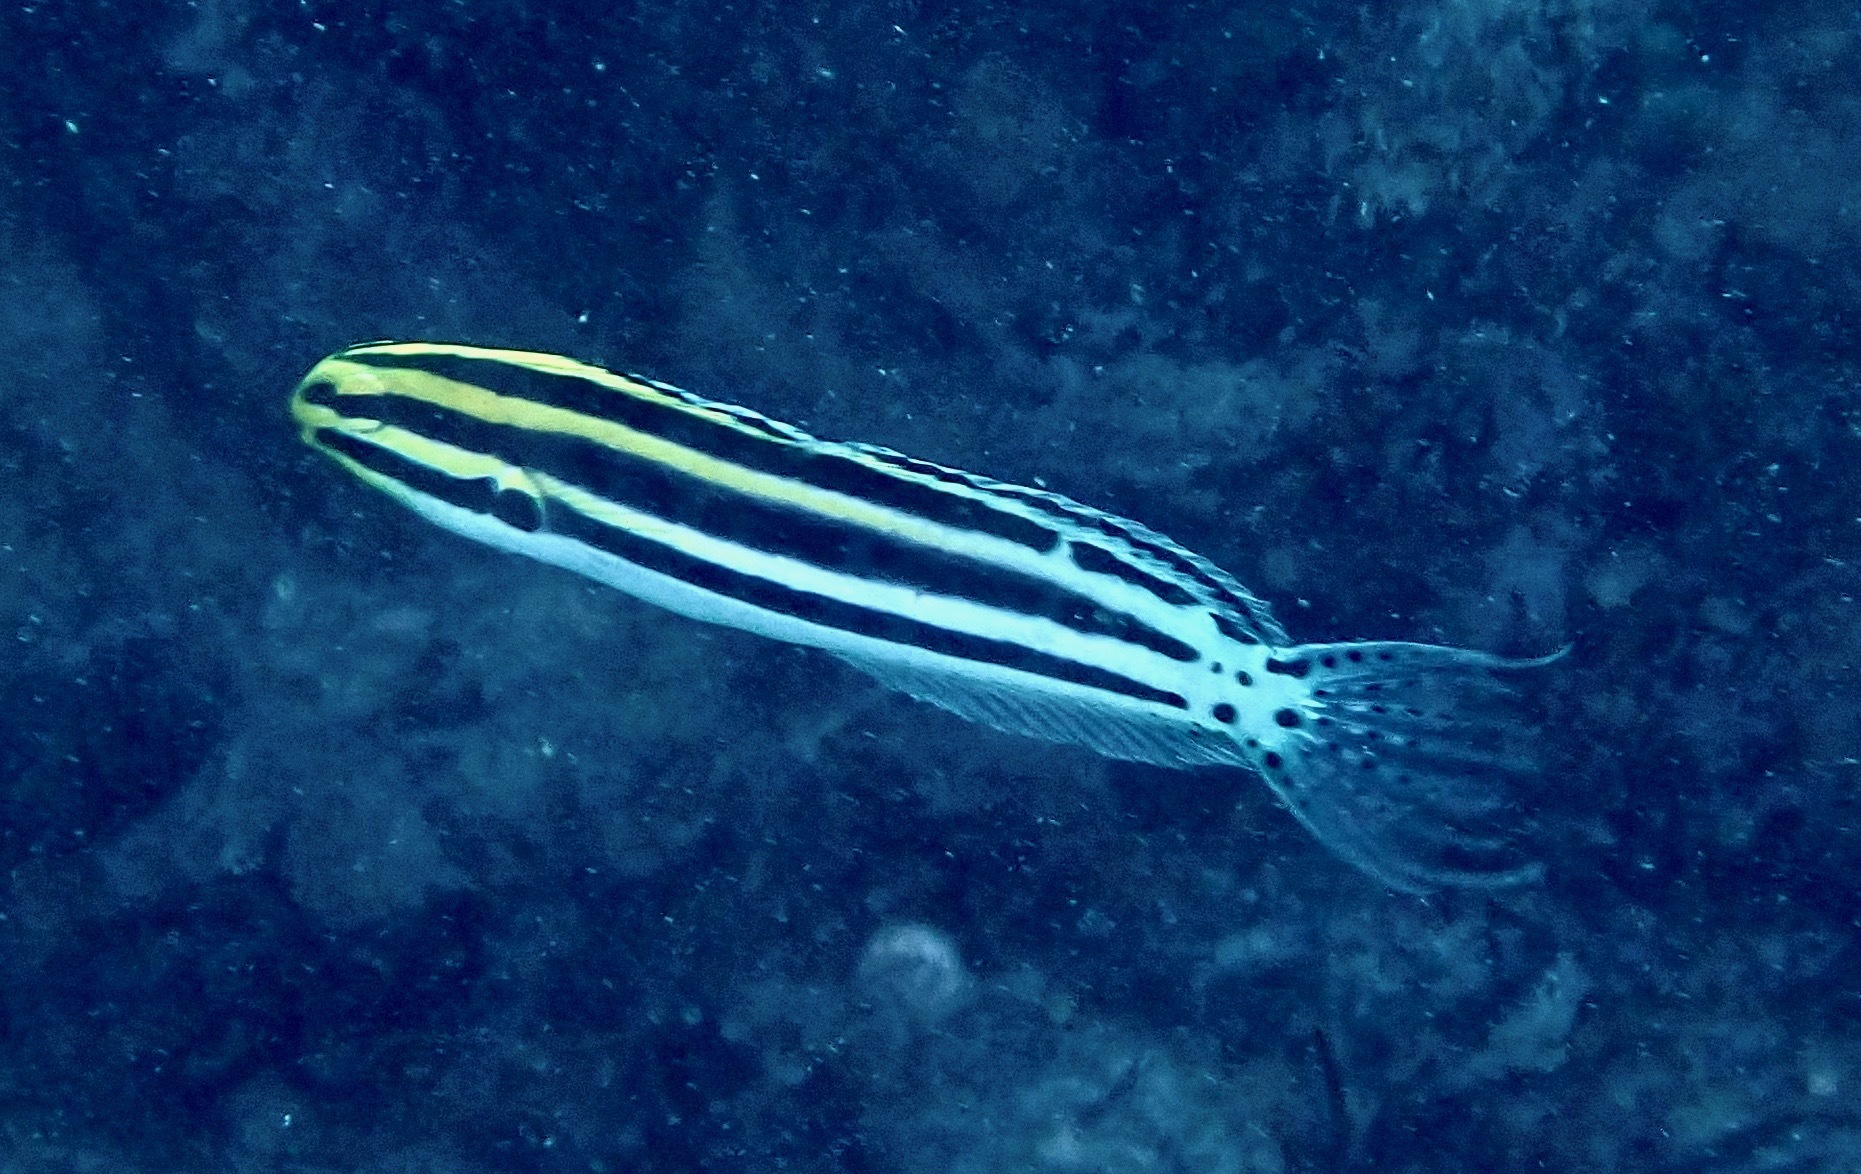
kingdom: Animalia
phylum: Chordata
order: Perciformes
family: Blenniidae
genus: Meiacanthus
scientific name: Meiacanthus grammistes
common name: Grammistes blenny
